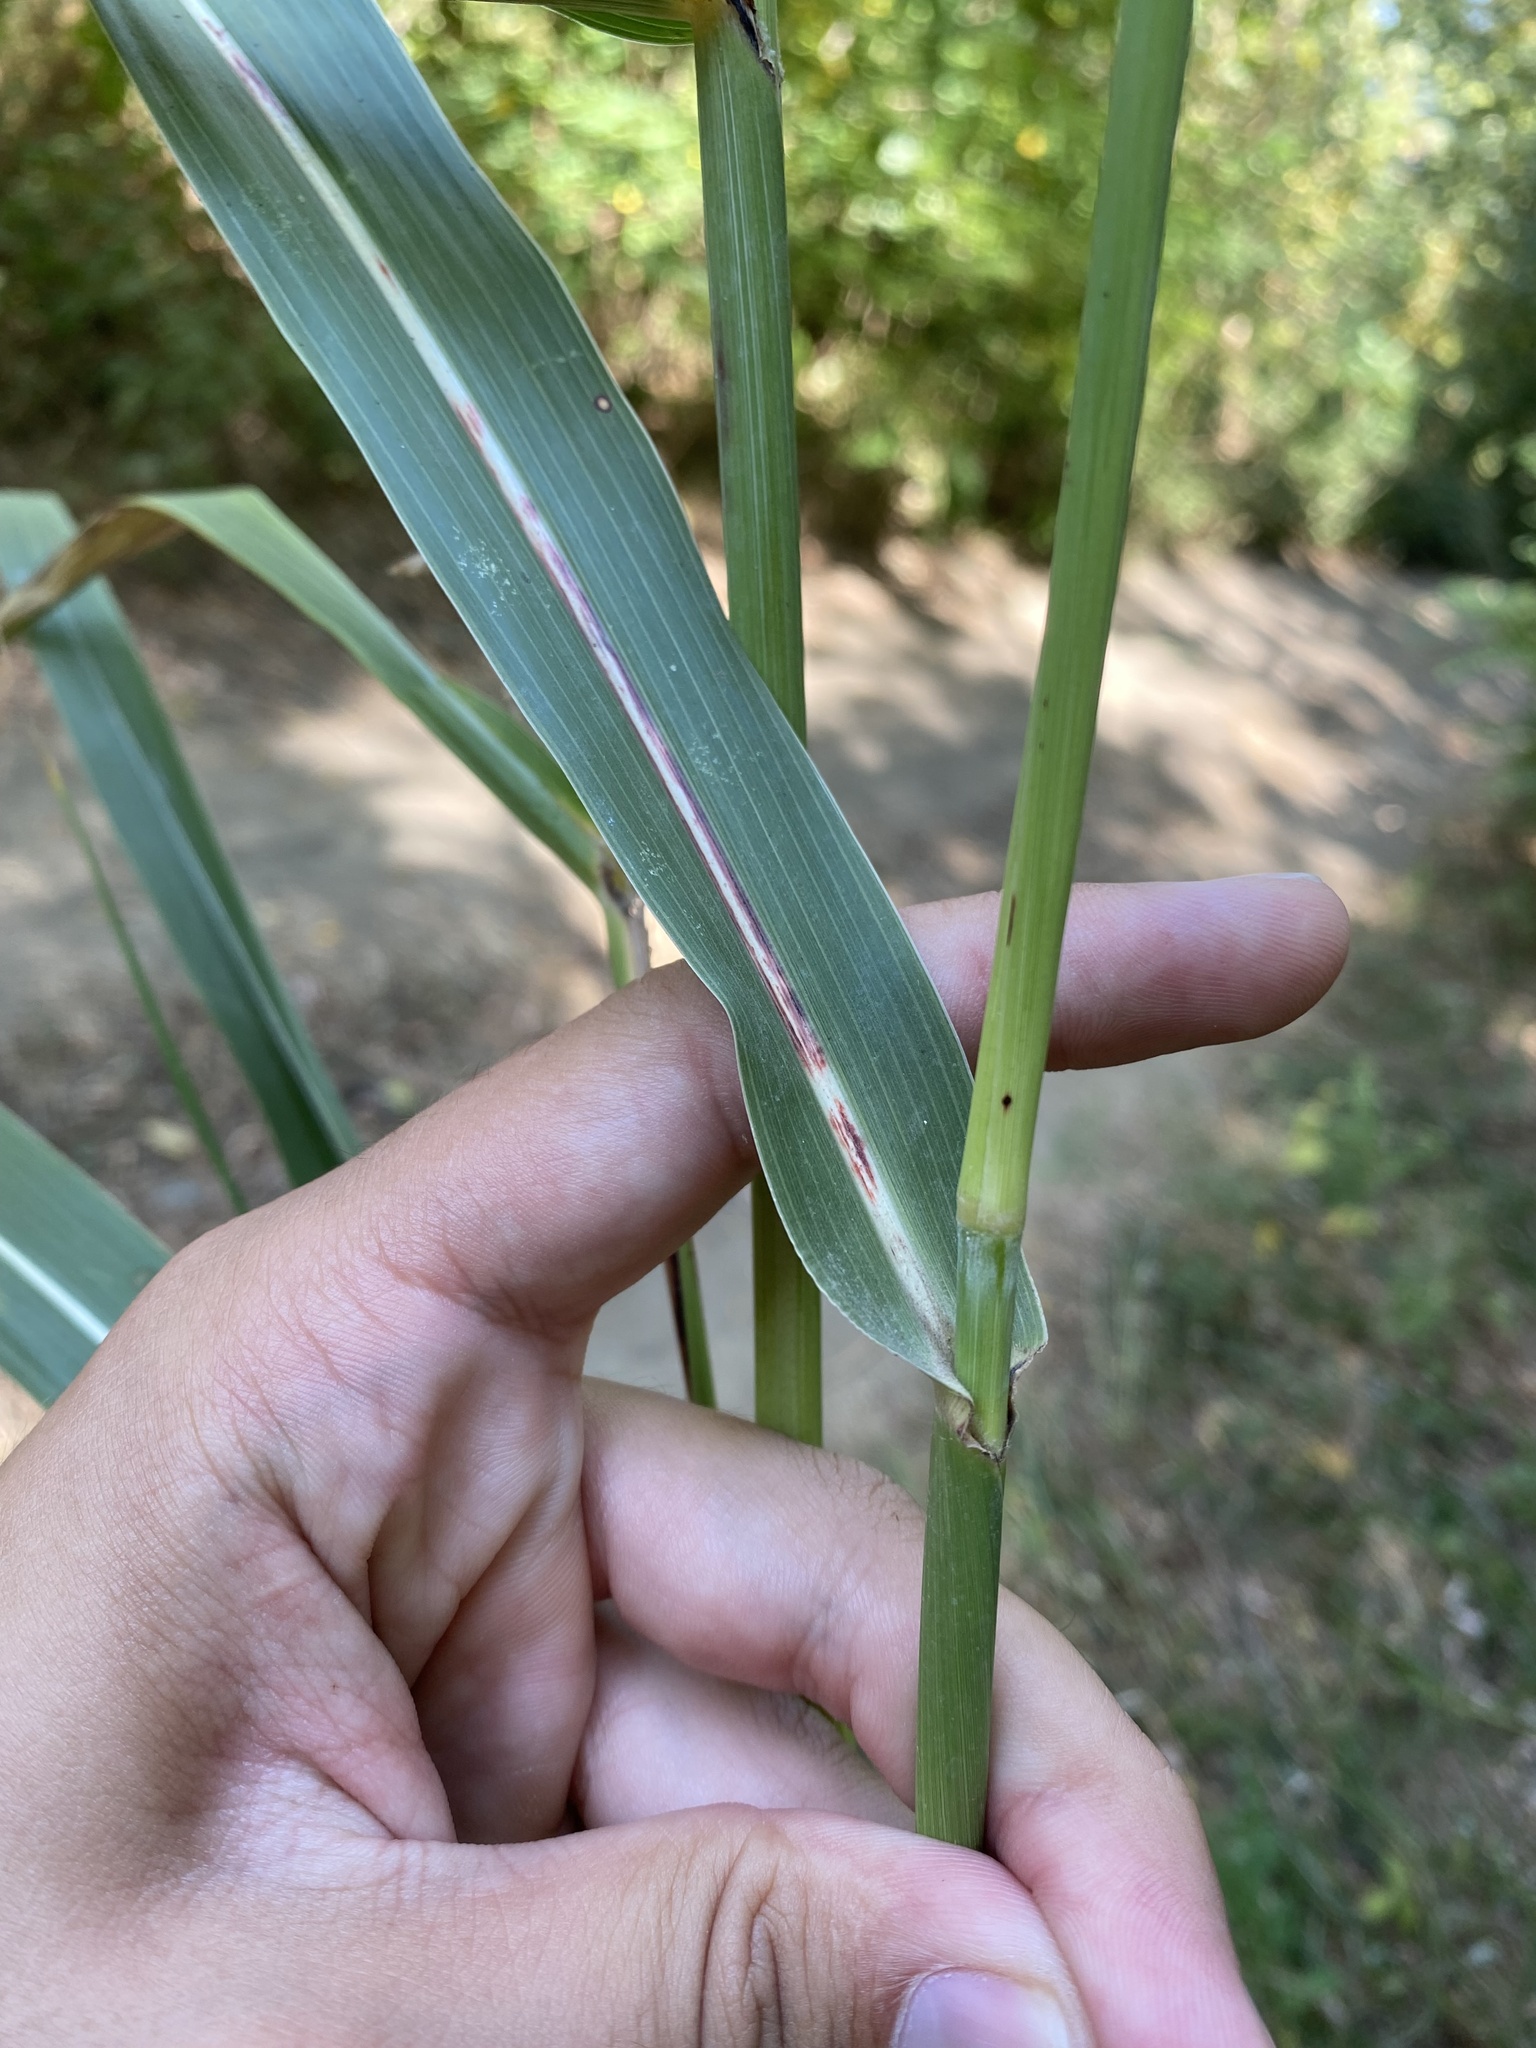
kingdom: Plantae
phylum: Tracheophyta
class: Liliopsida
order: Poales
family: Poaceae
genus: Sorghum
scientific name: Sorghum halepense
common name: Johnson-grass
